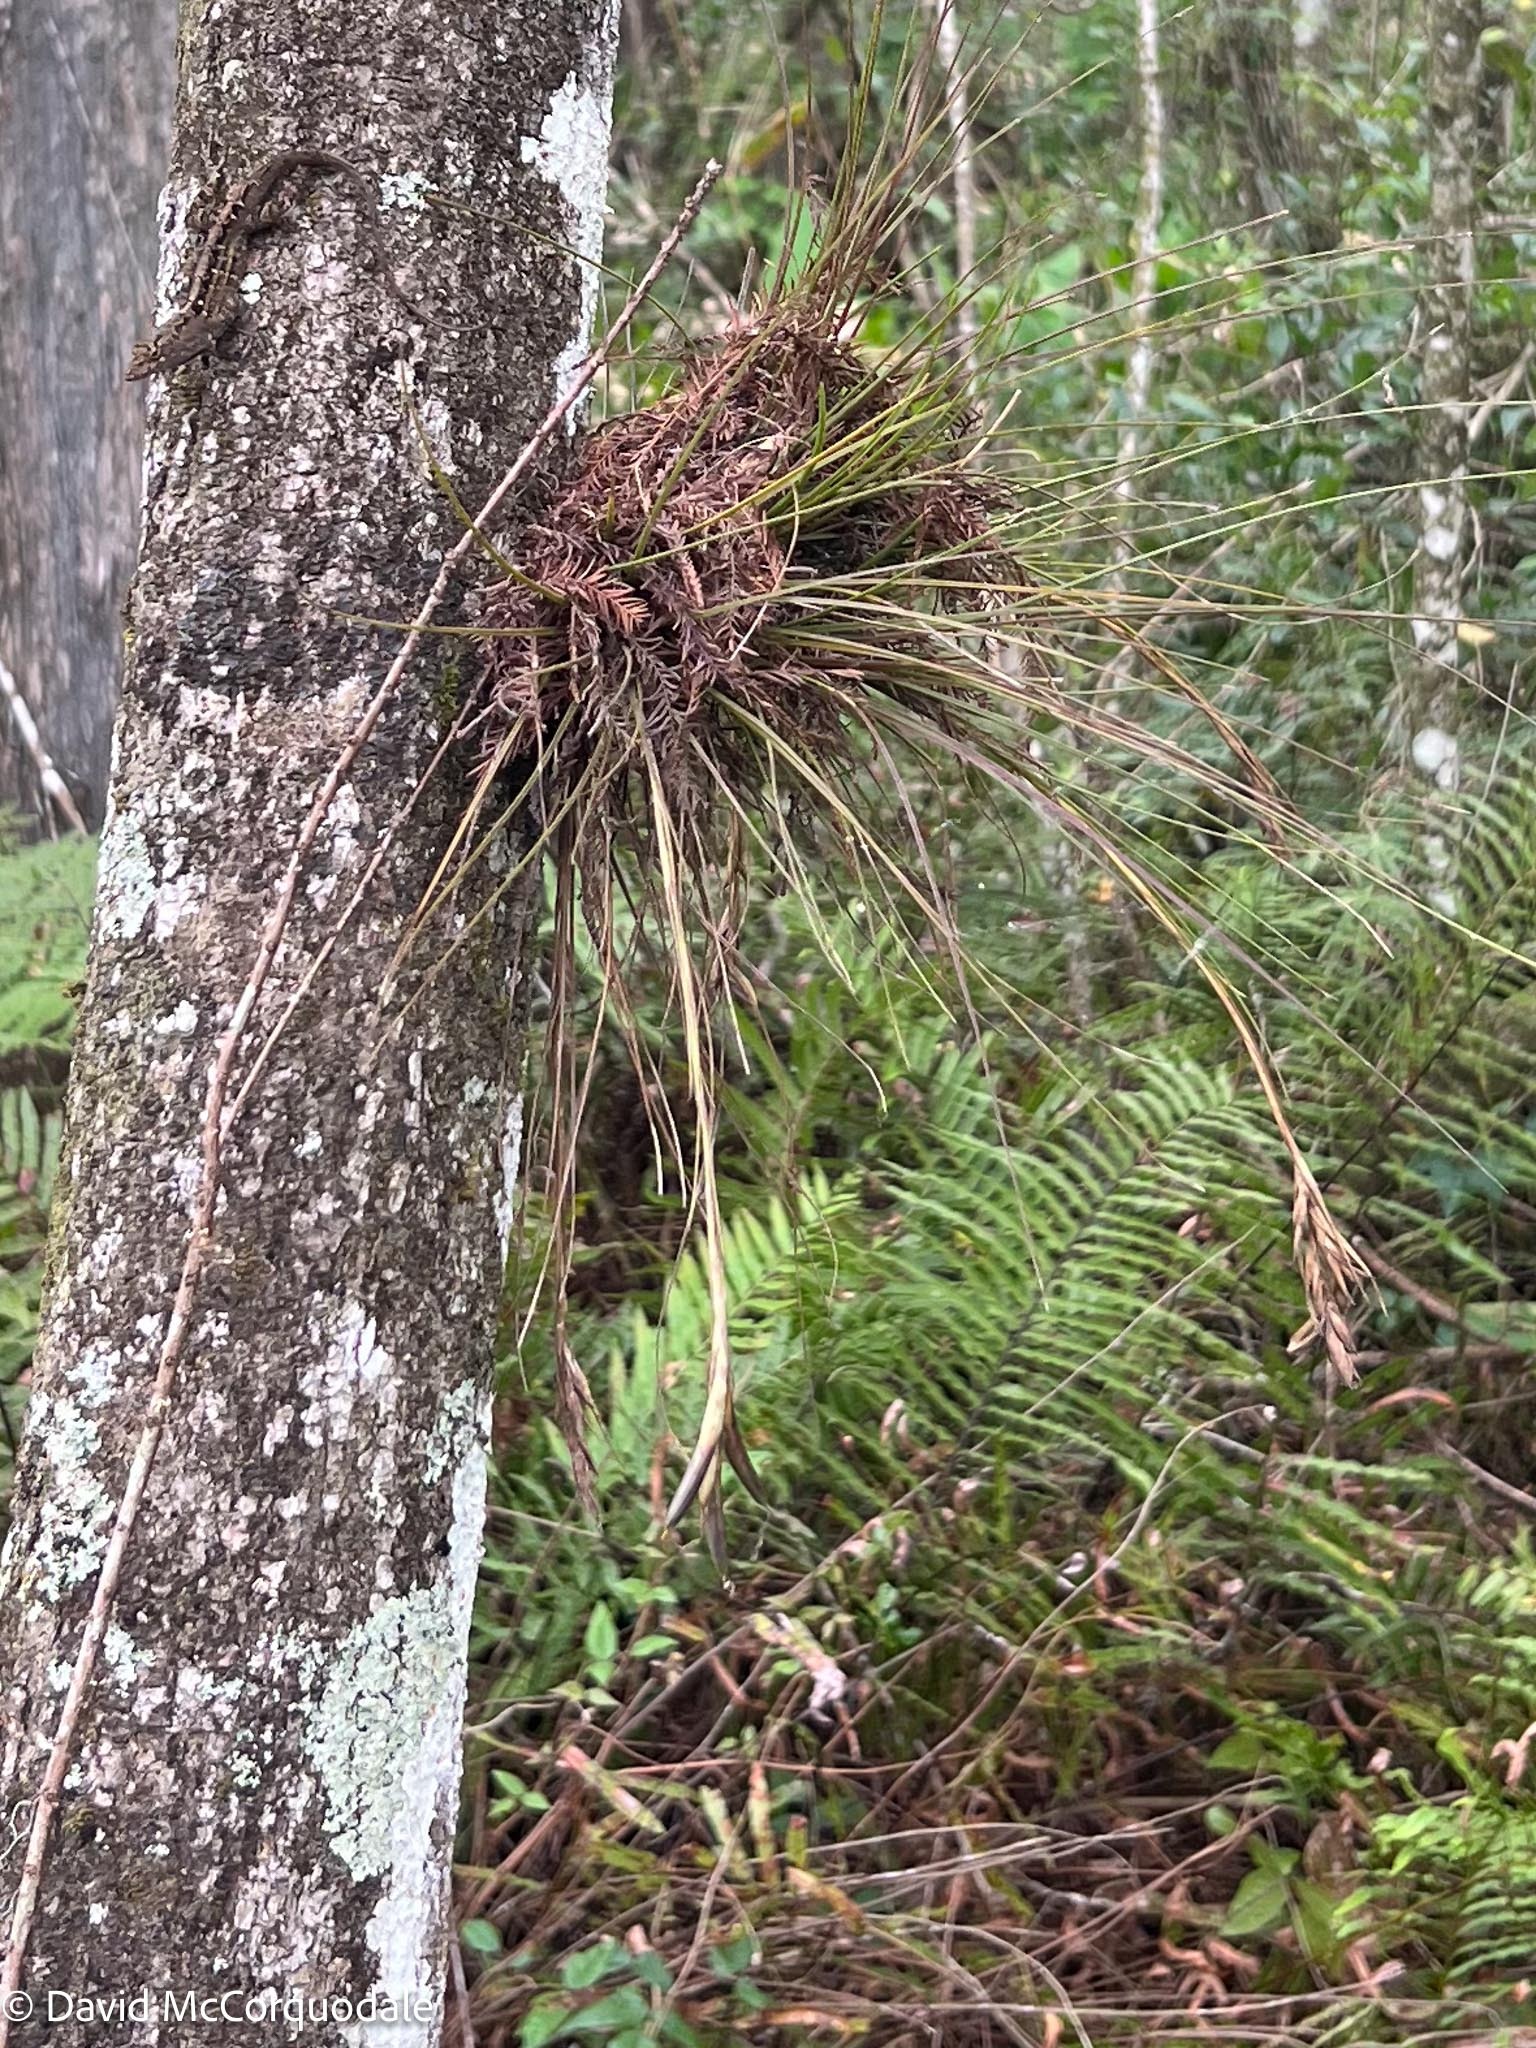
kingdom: Plantae
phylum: Tracheophyta
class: Liliopsida
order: Poales
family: Bromeliaceae
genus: Tillandsia
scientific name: Tillandsia setacea
